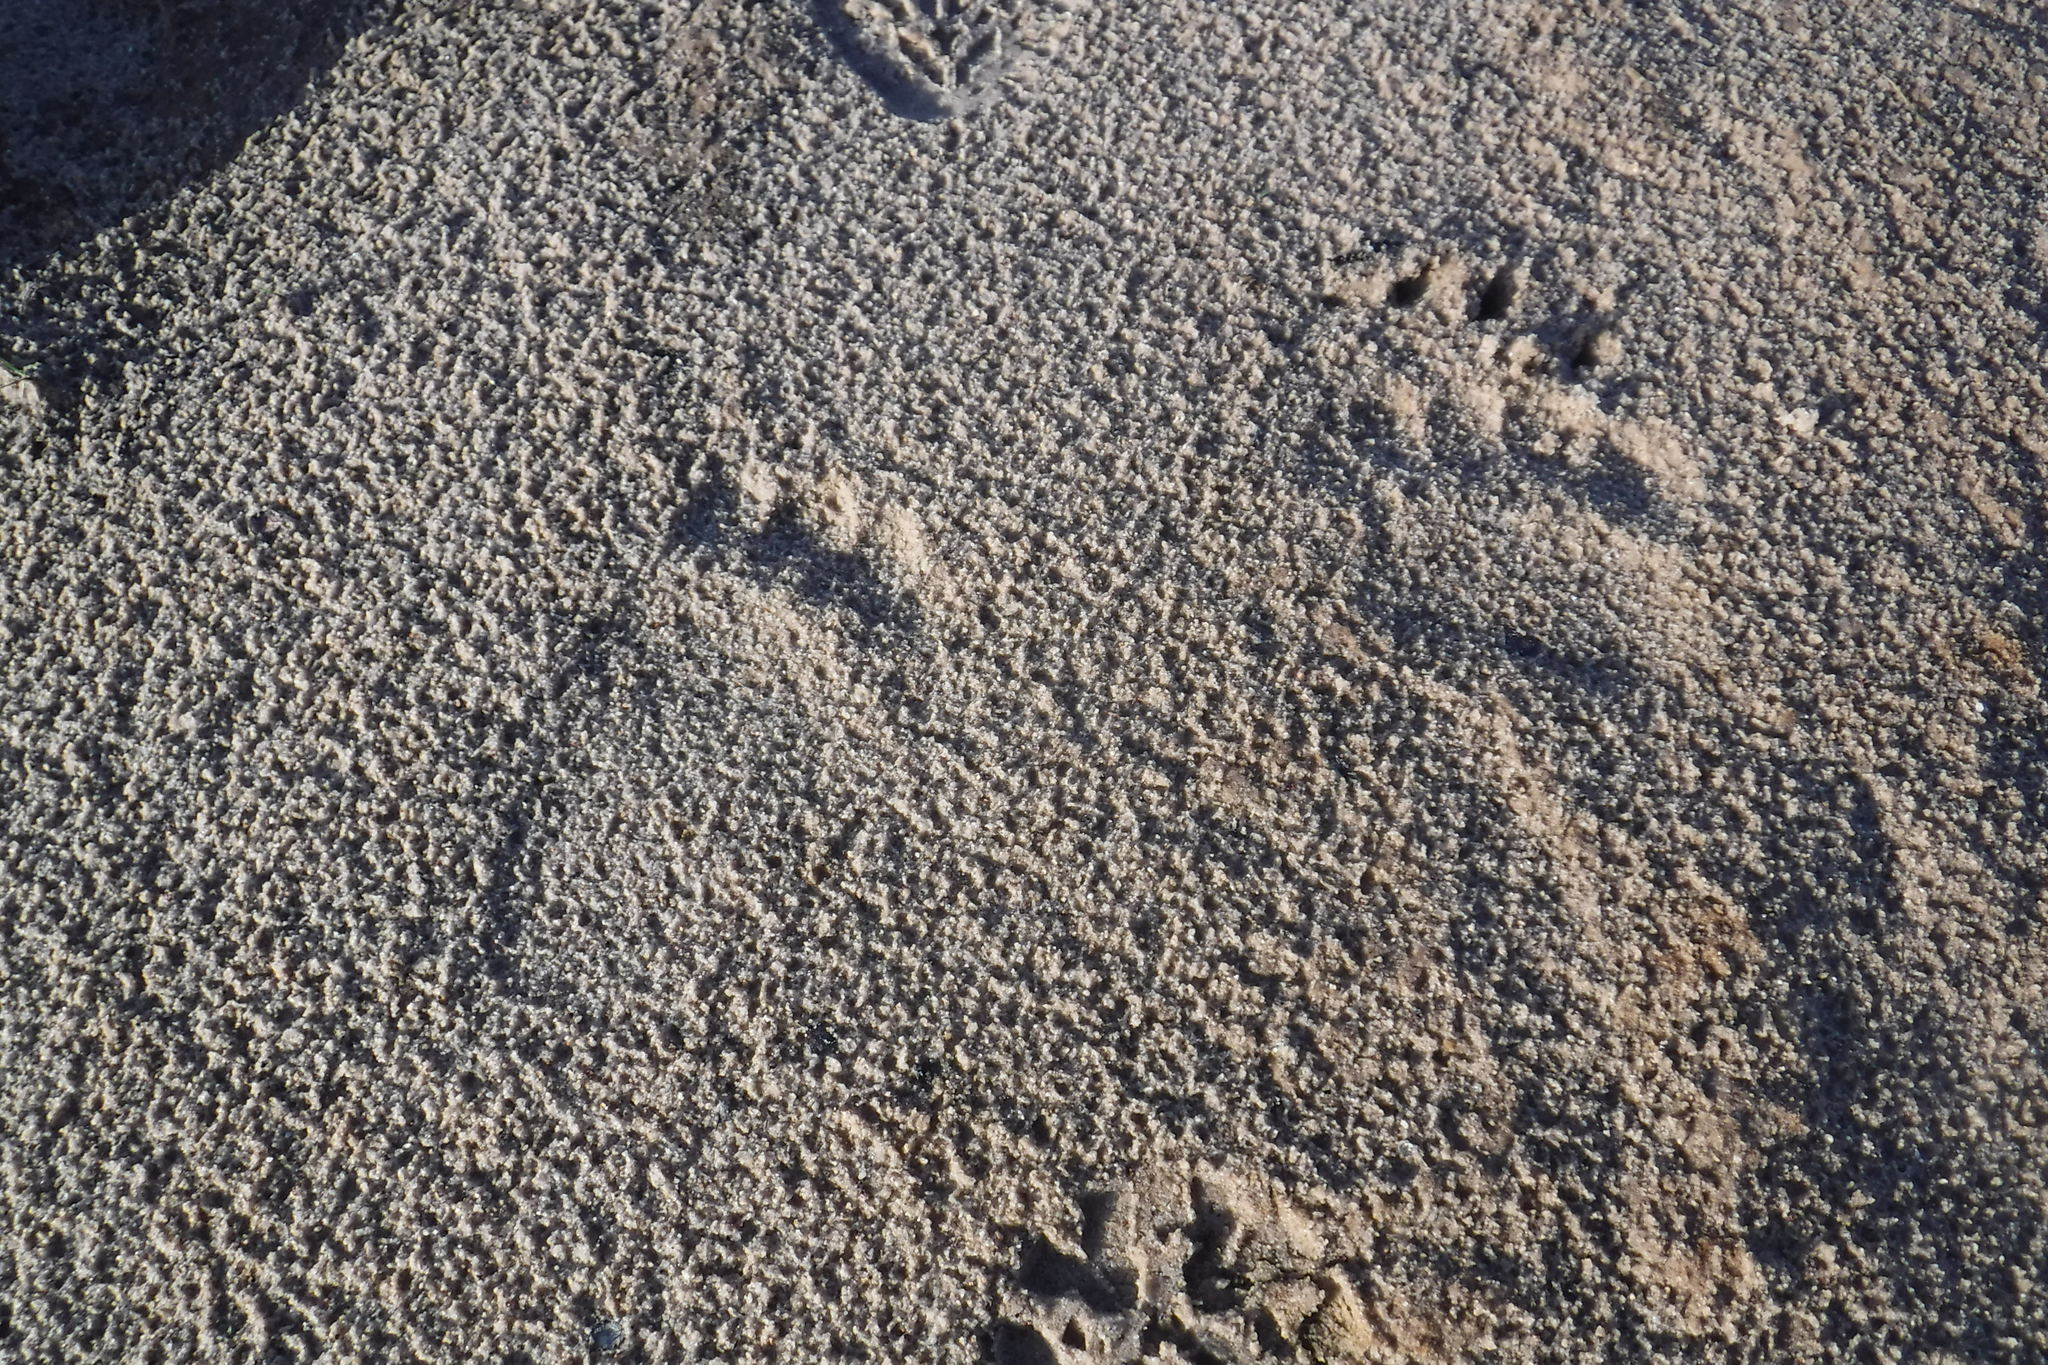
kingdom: Animalia
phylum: Chordata
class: Mammalia
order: Carnivora
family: Ursidae
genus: Ursus
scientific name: Ursus arctos
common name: Brown bear
